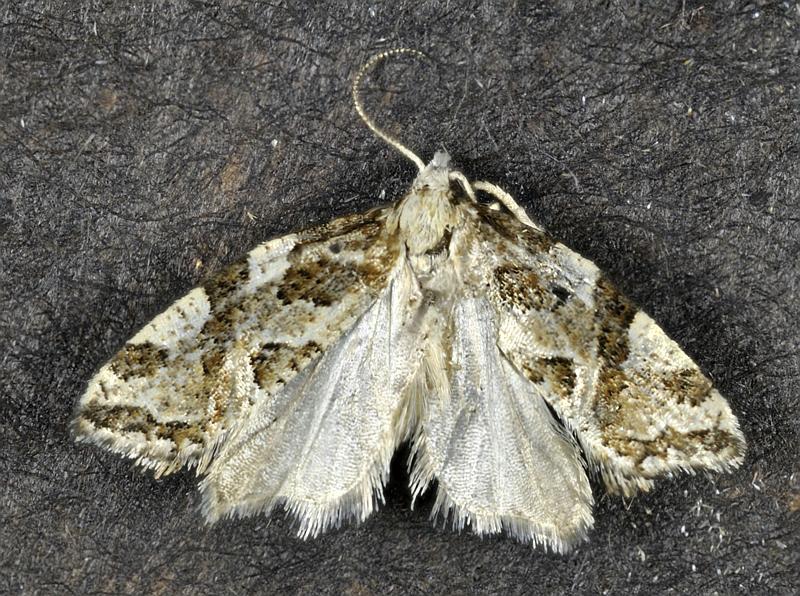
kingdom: Animalia
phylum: Arthropoda
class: Insecta
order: Lepidoptera
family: Tortricidae
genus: Aethes
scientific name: Aethes sexdentata
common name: Six-toothed aethes
